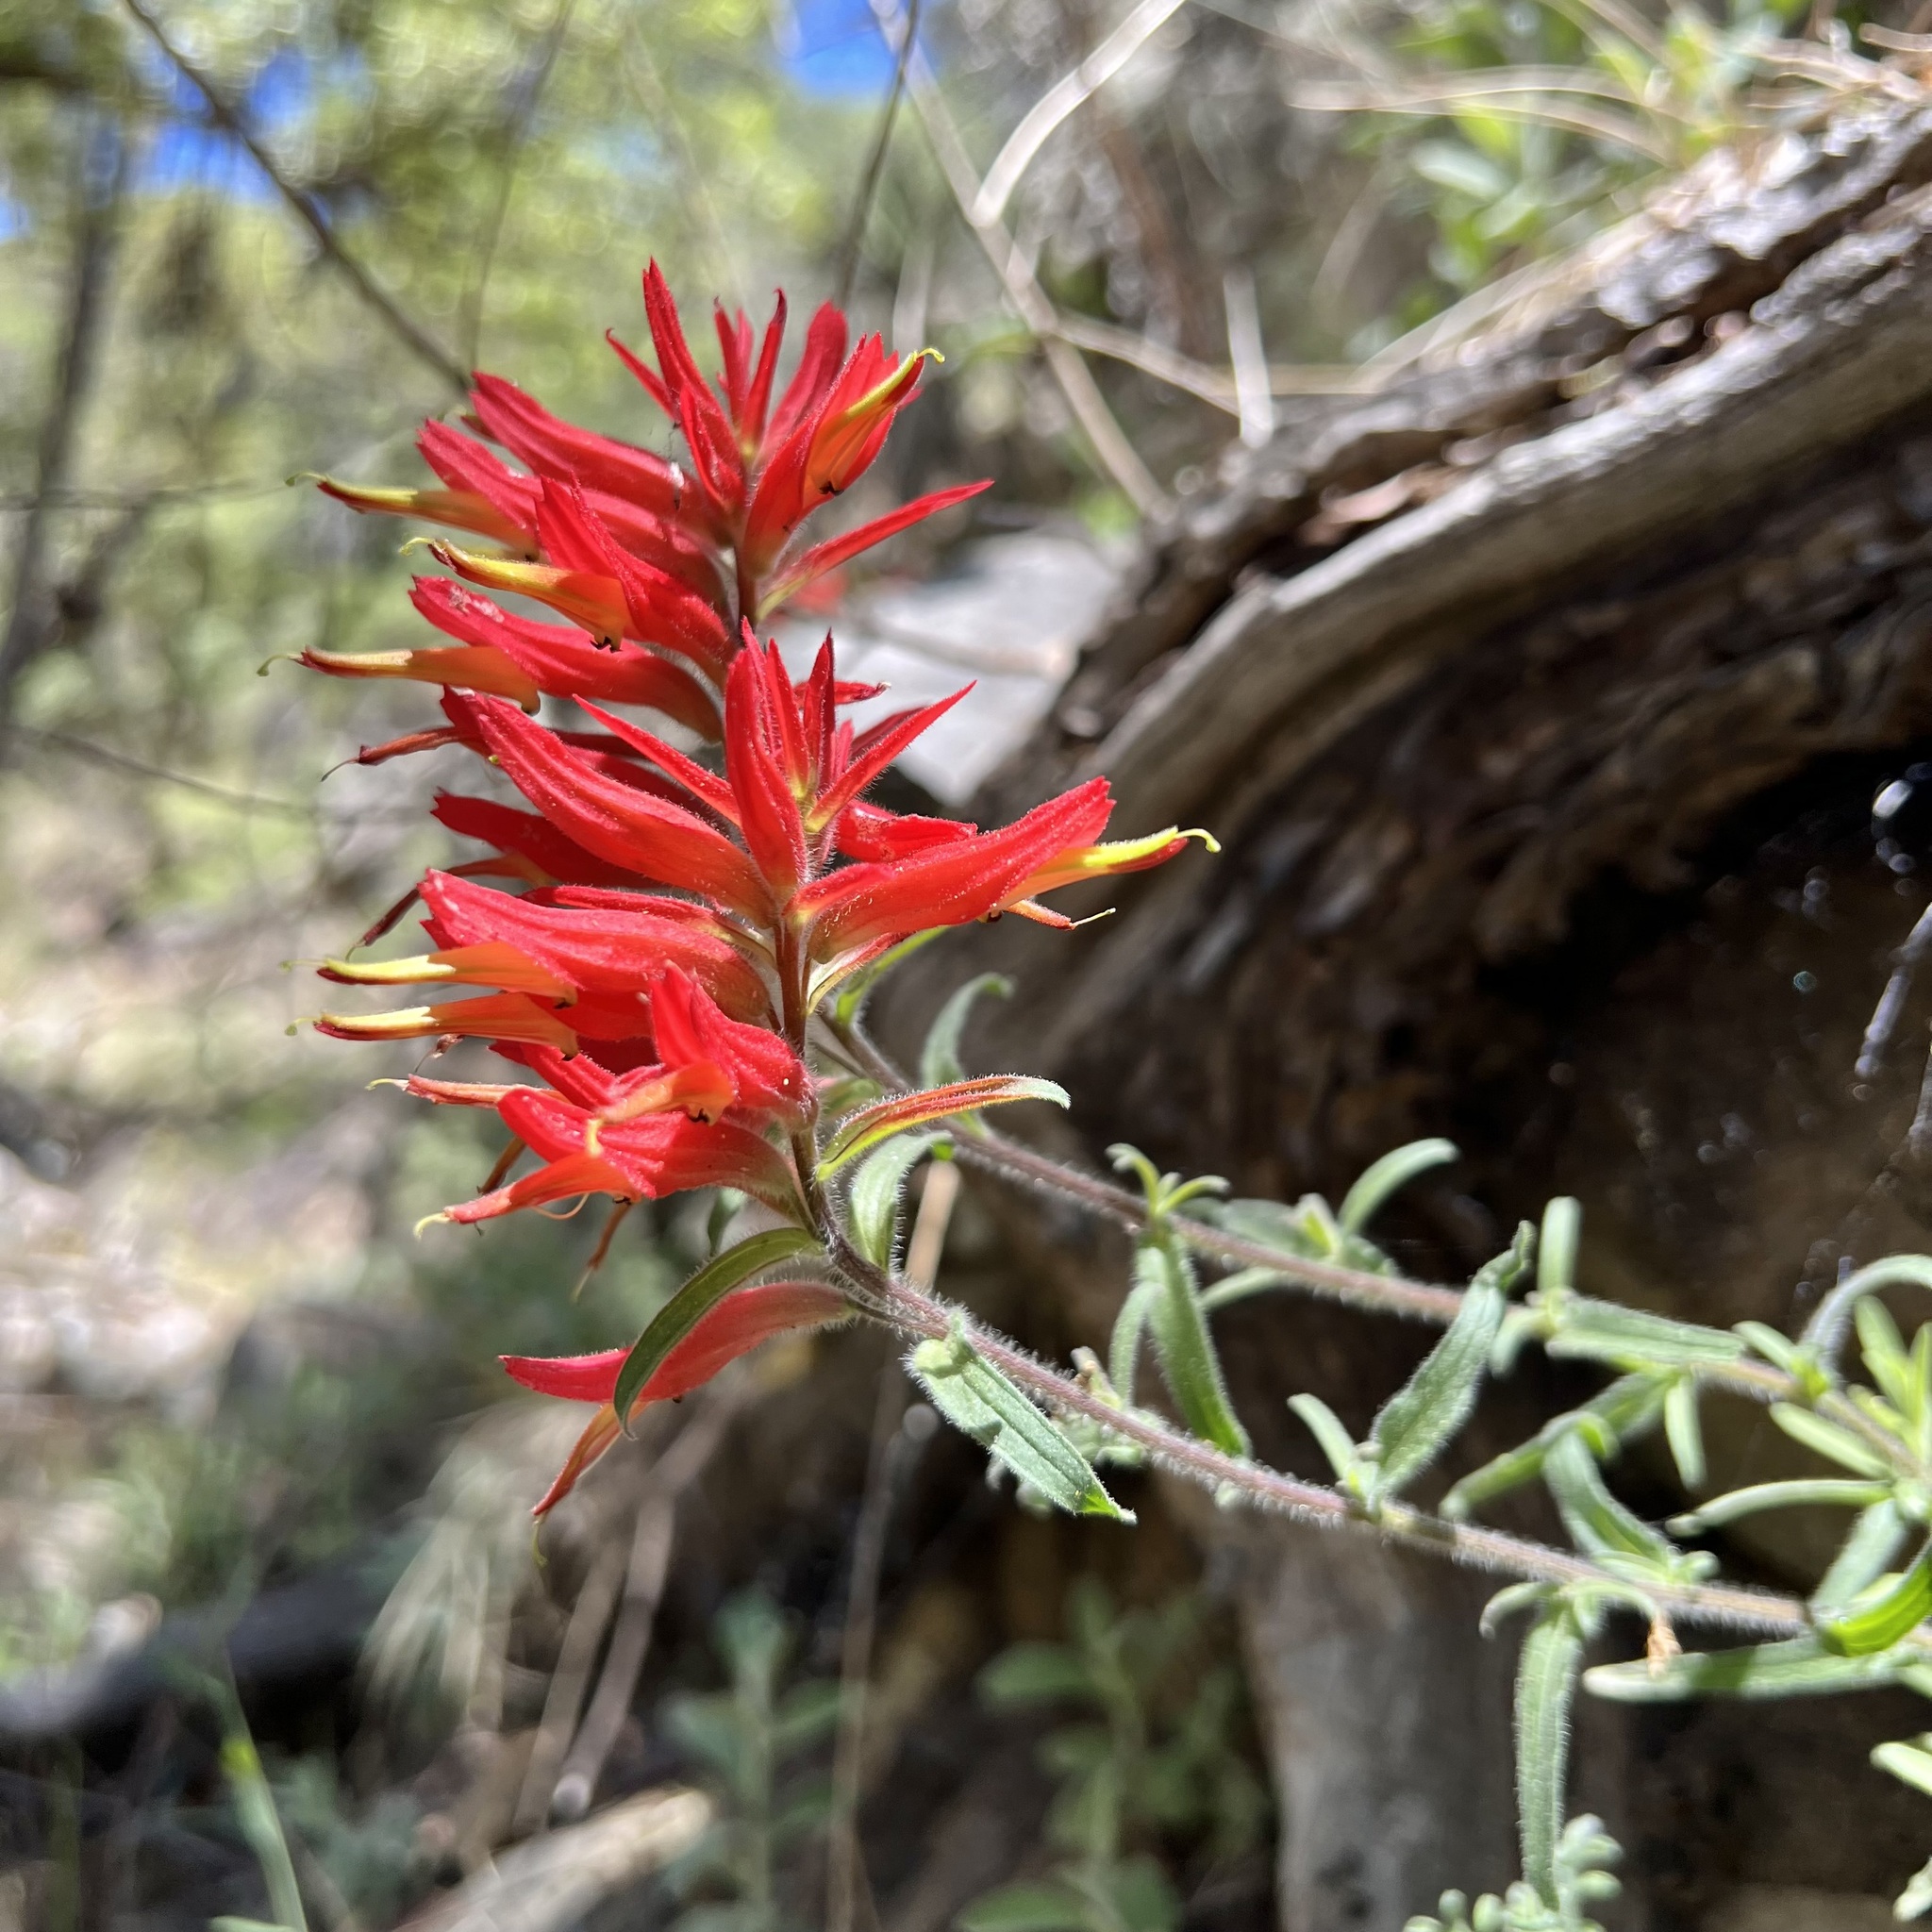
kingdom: Plantae
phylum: Tracheophyta
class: Magnoliopsida
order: Lamiales
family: Orobanchaceae
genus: Castilleja
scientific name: Castilleja tenuiflora
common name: Santa catalina indian paintbrush
